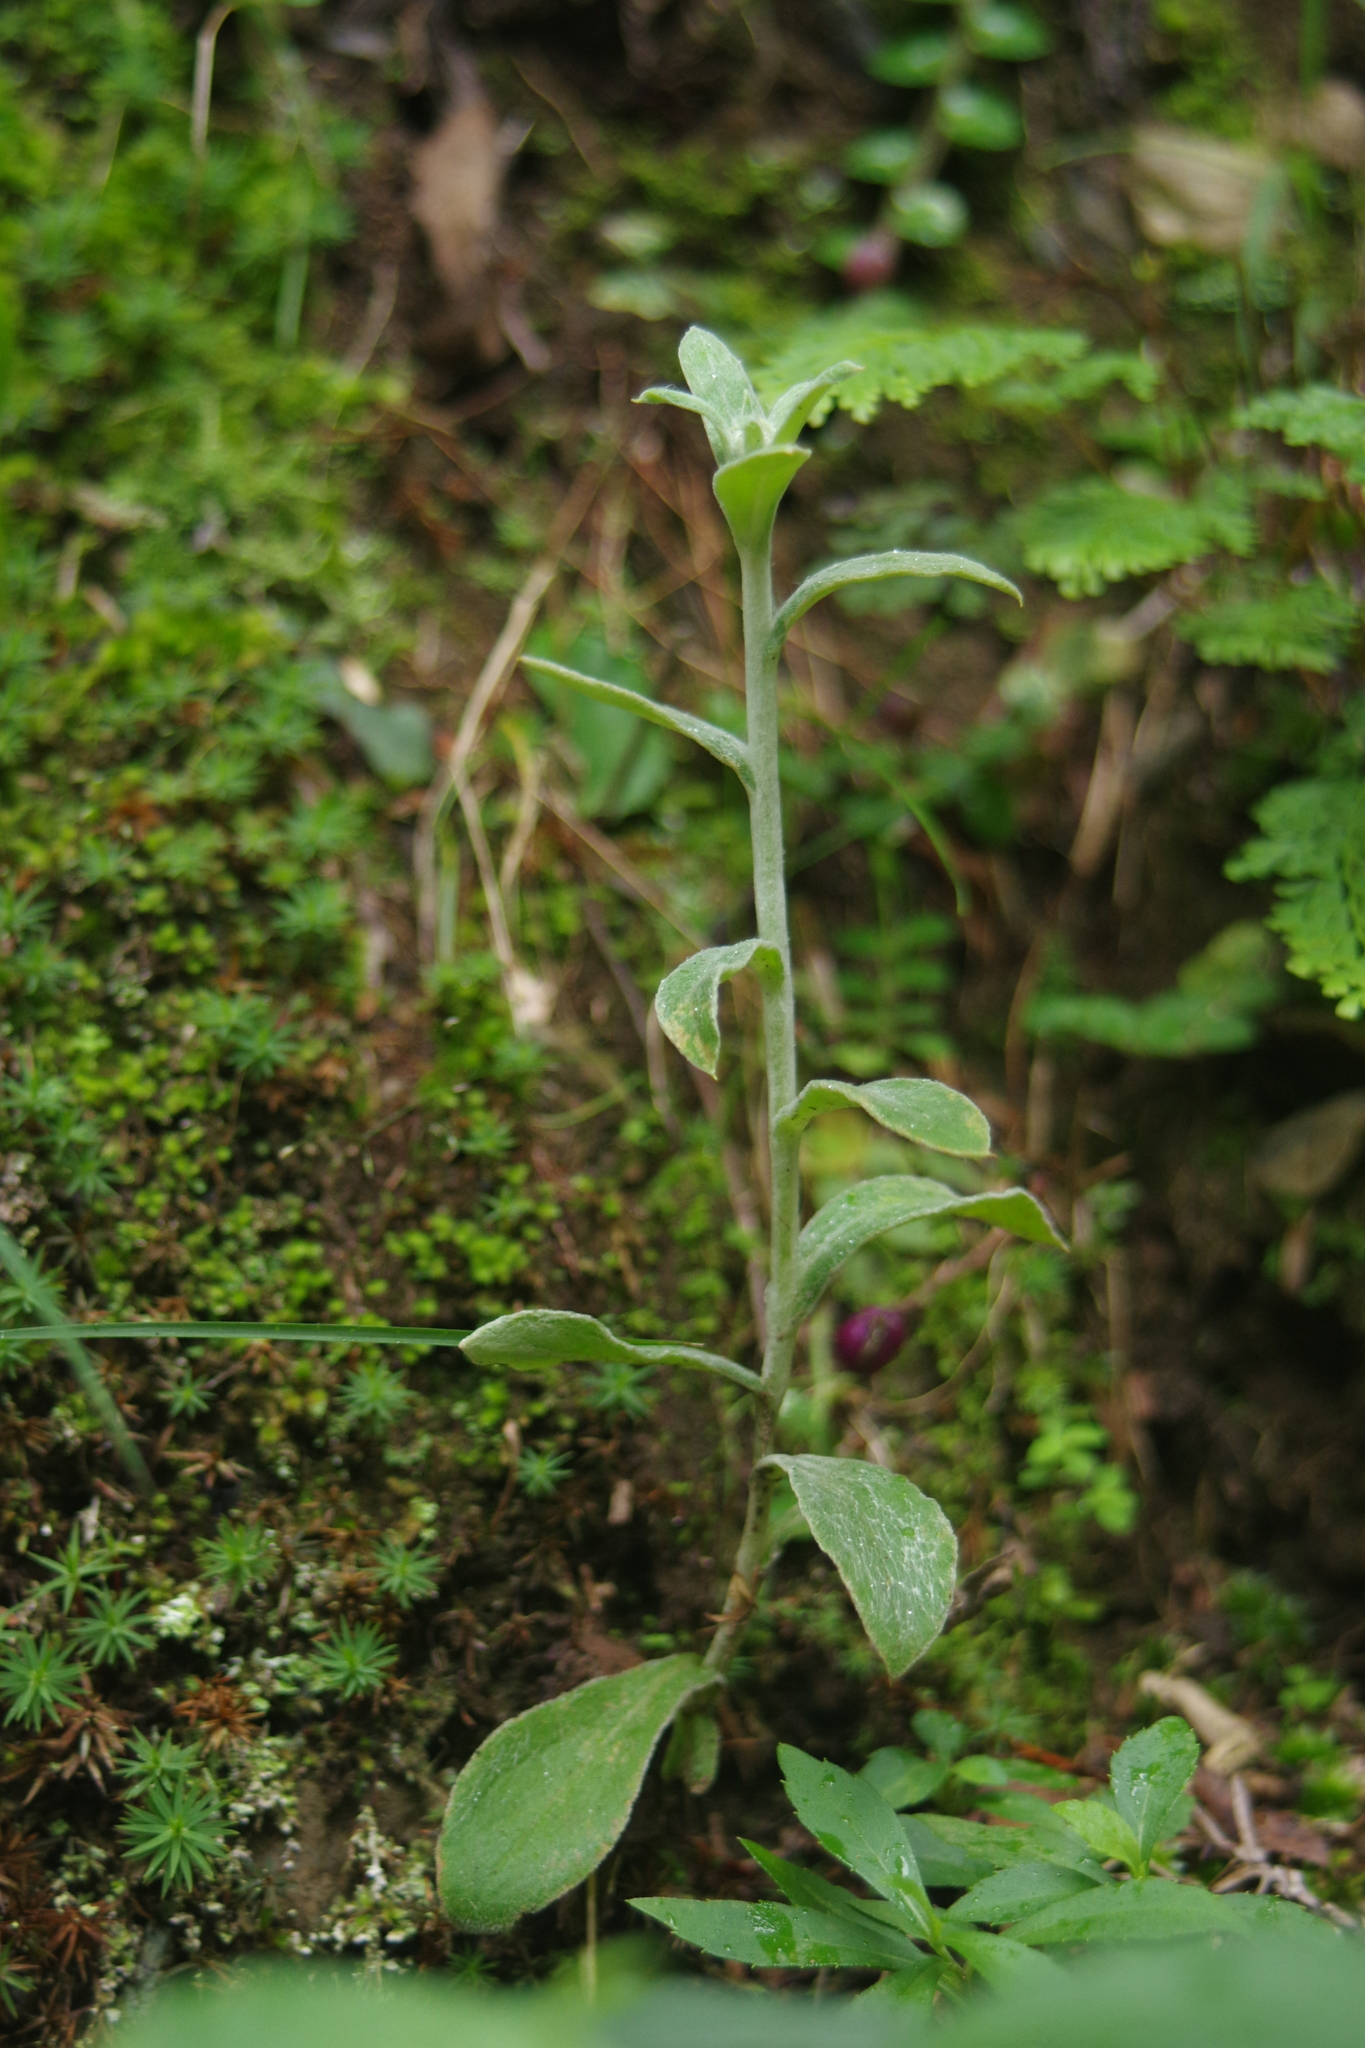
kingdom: Plantae
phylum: Tracheophyta
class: Magnoliopsida
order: Asterales
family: Asteraceae
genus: Pseudognaphalium
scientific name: Pseudognaphalium adnatum
